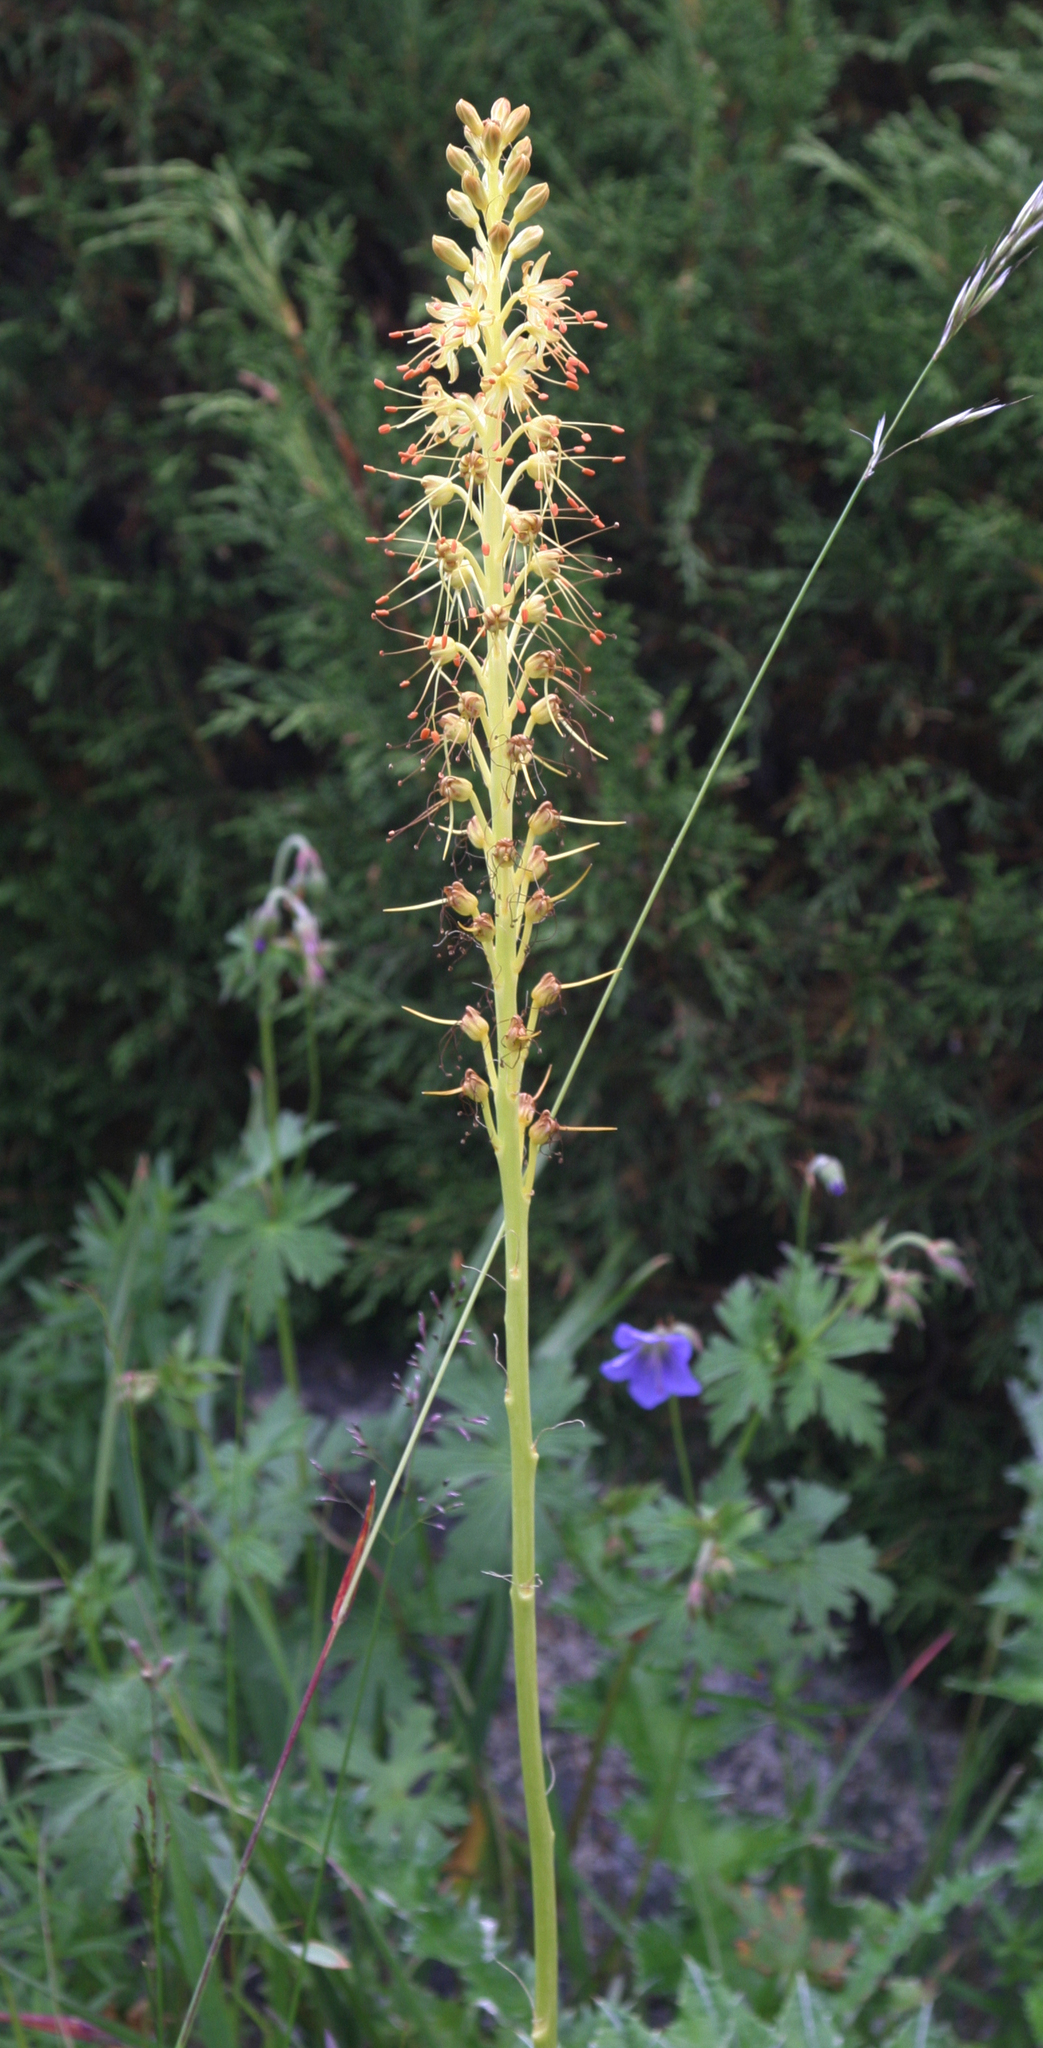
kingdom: Plantae
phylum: Tracheophyta
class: Liliopsida
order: Asparagales
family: Asphodelaceae
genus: Eremurus
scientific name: Eremurus fuscus
